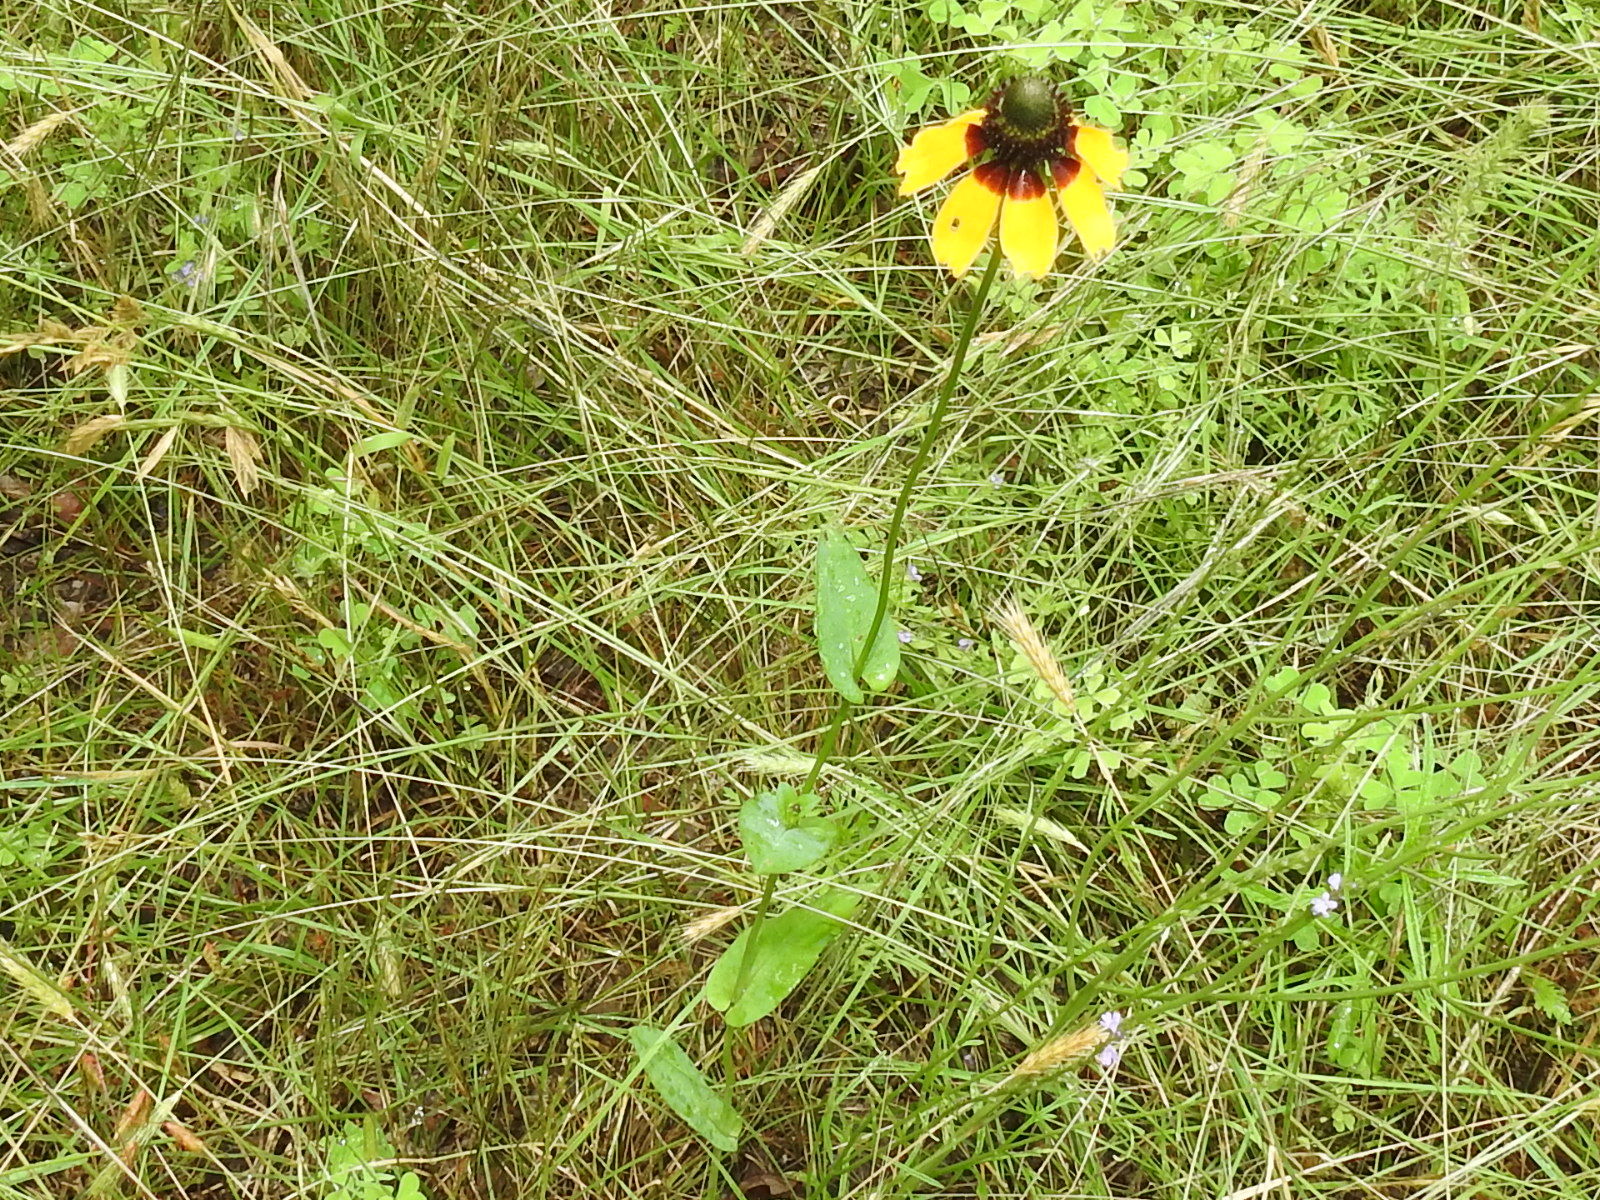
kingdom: Plantae
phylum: Tracheophyta
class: Magnoliopsida
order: Asterales
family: Asteraceae
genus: Rudbeckia
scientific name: Rudbeckia amplexicaulis
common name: Clasping-leaf coneflower
